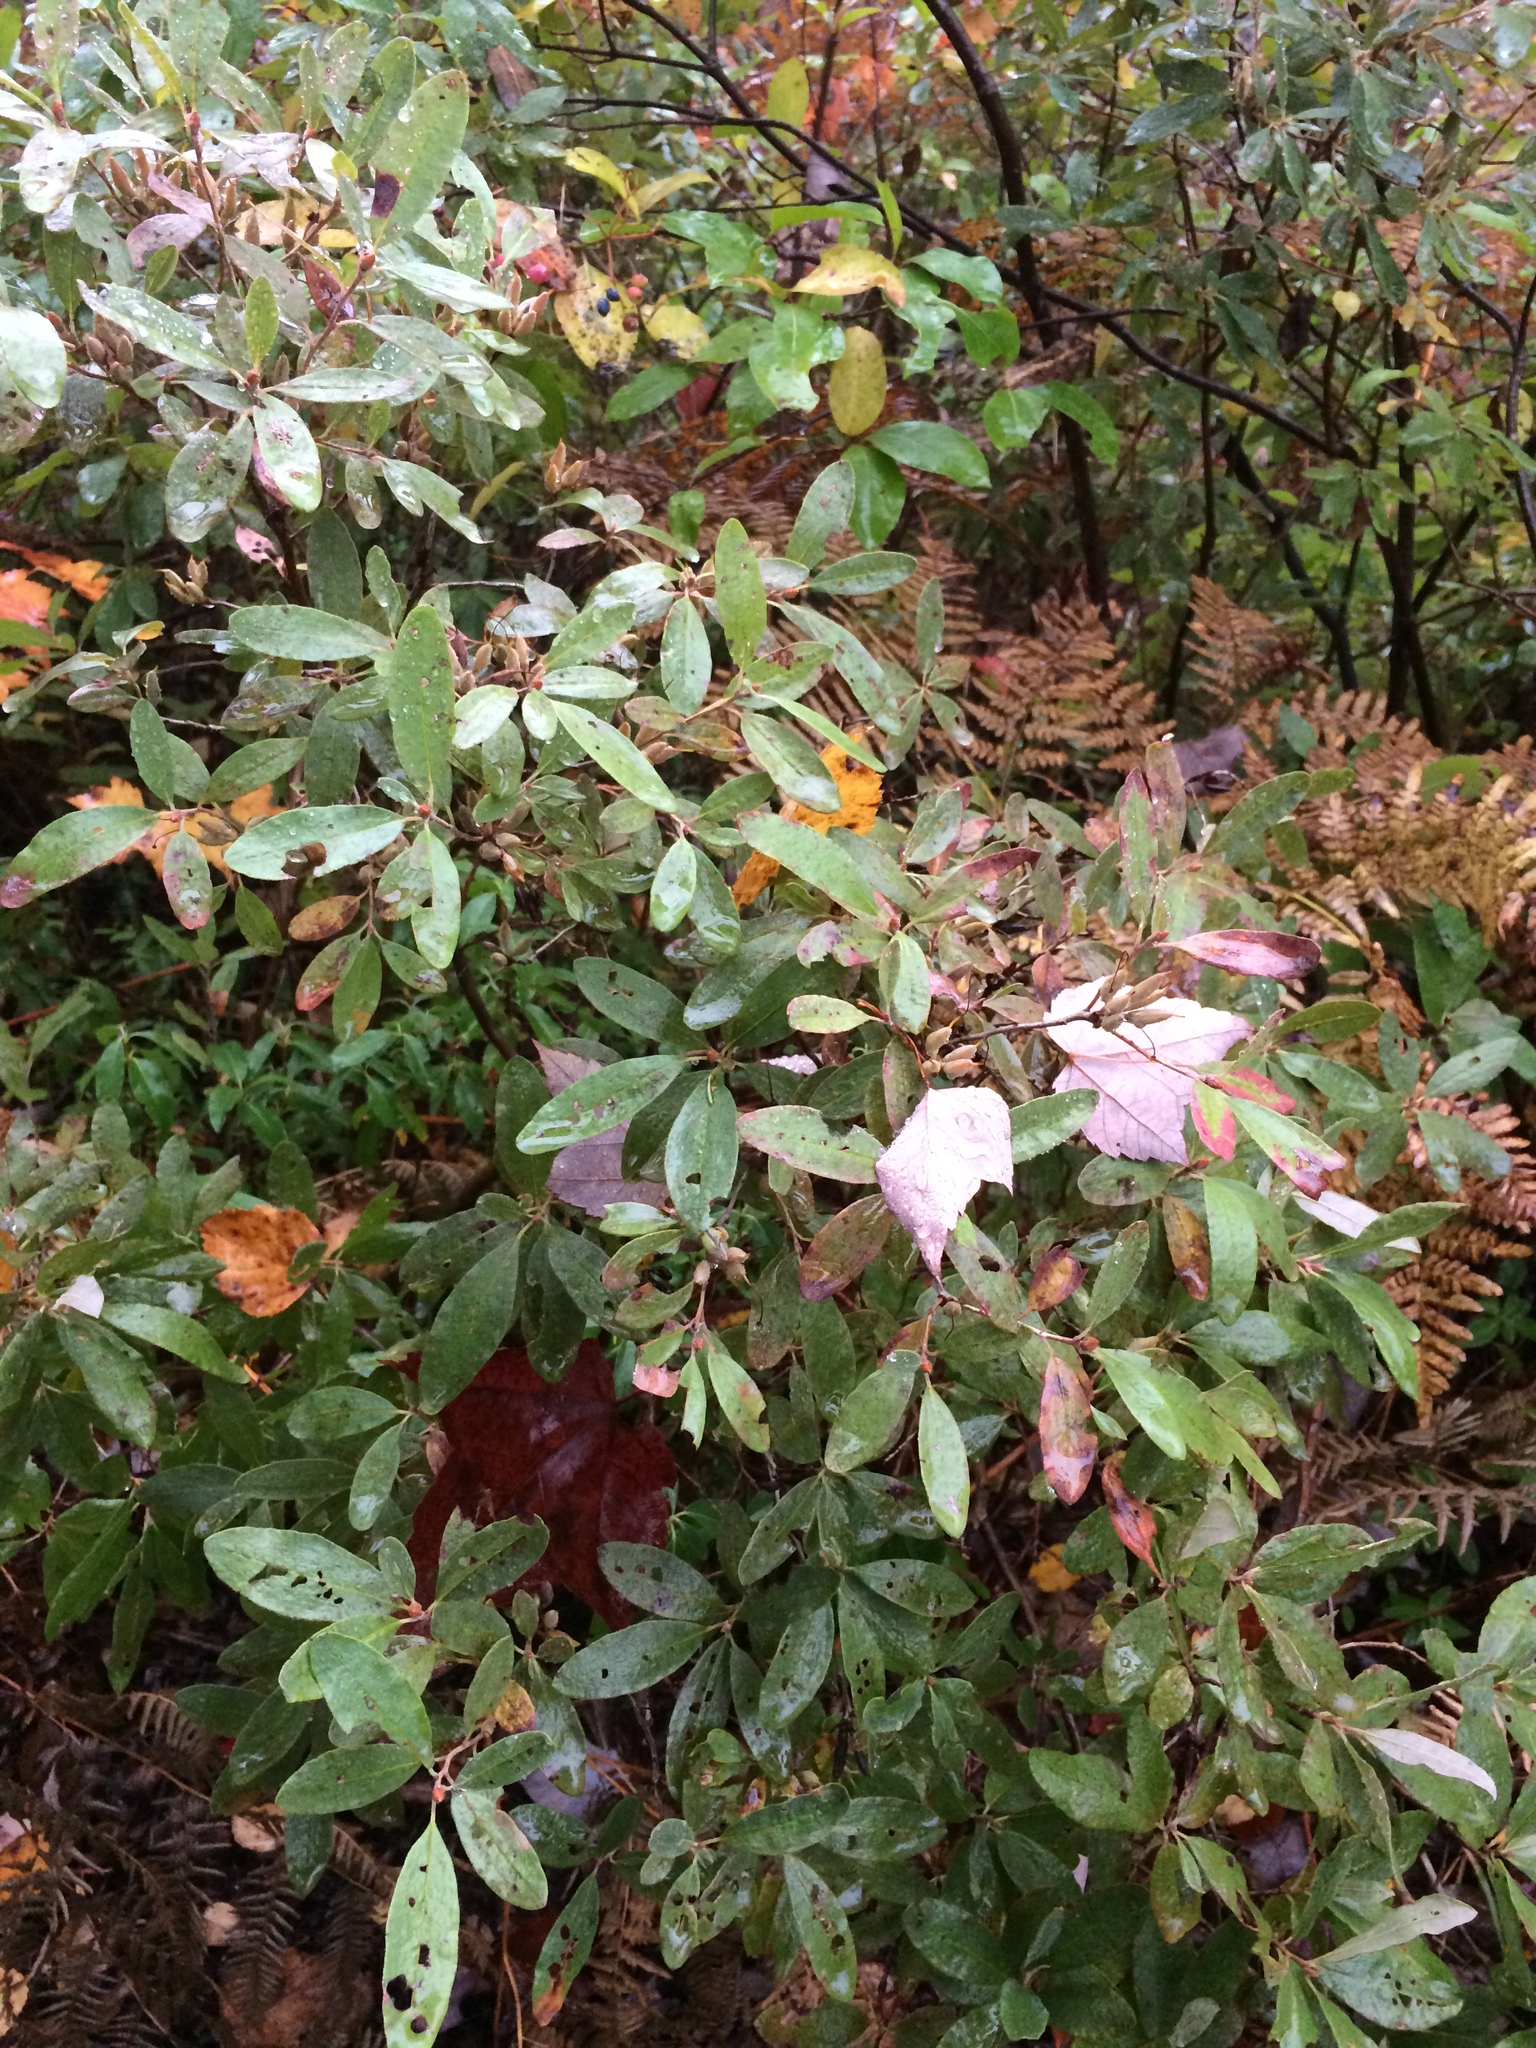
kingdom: Plantae
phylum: Tracheophyta
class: Magnoliopsida
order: Ericales
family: Ericaceae
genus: Rhododendron
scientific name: Rhododendron canadense
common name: Rhodora
